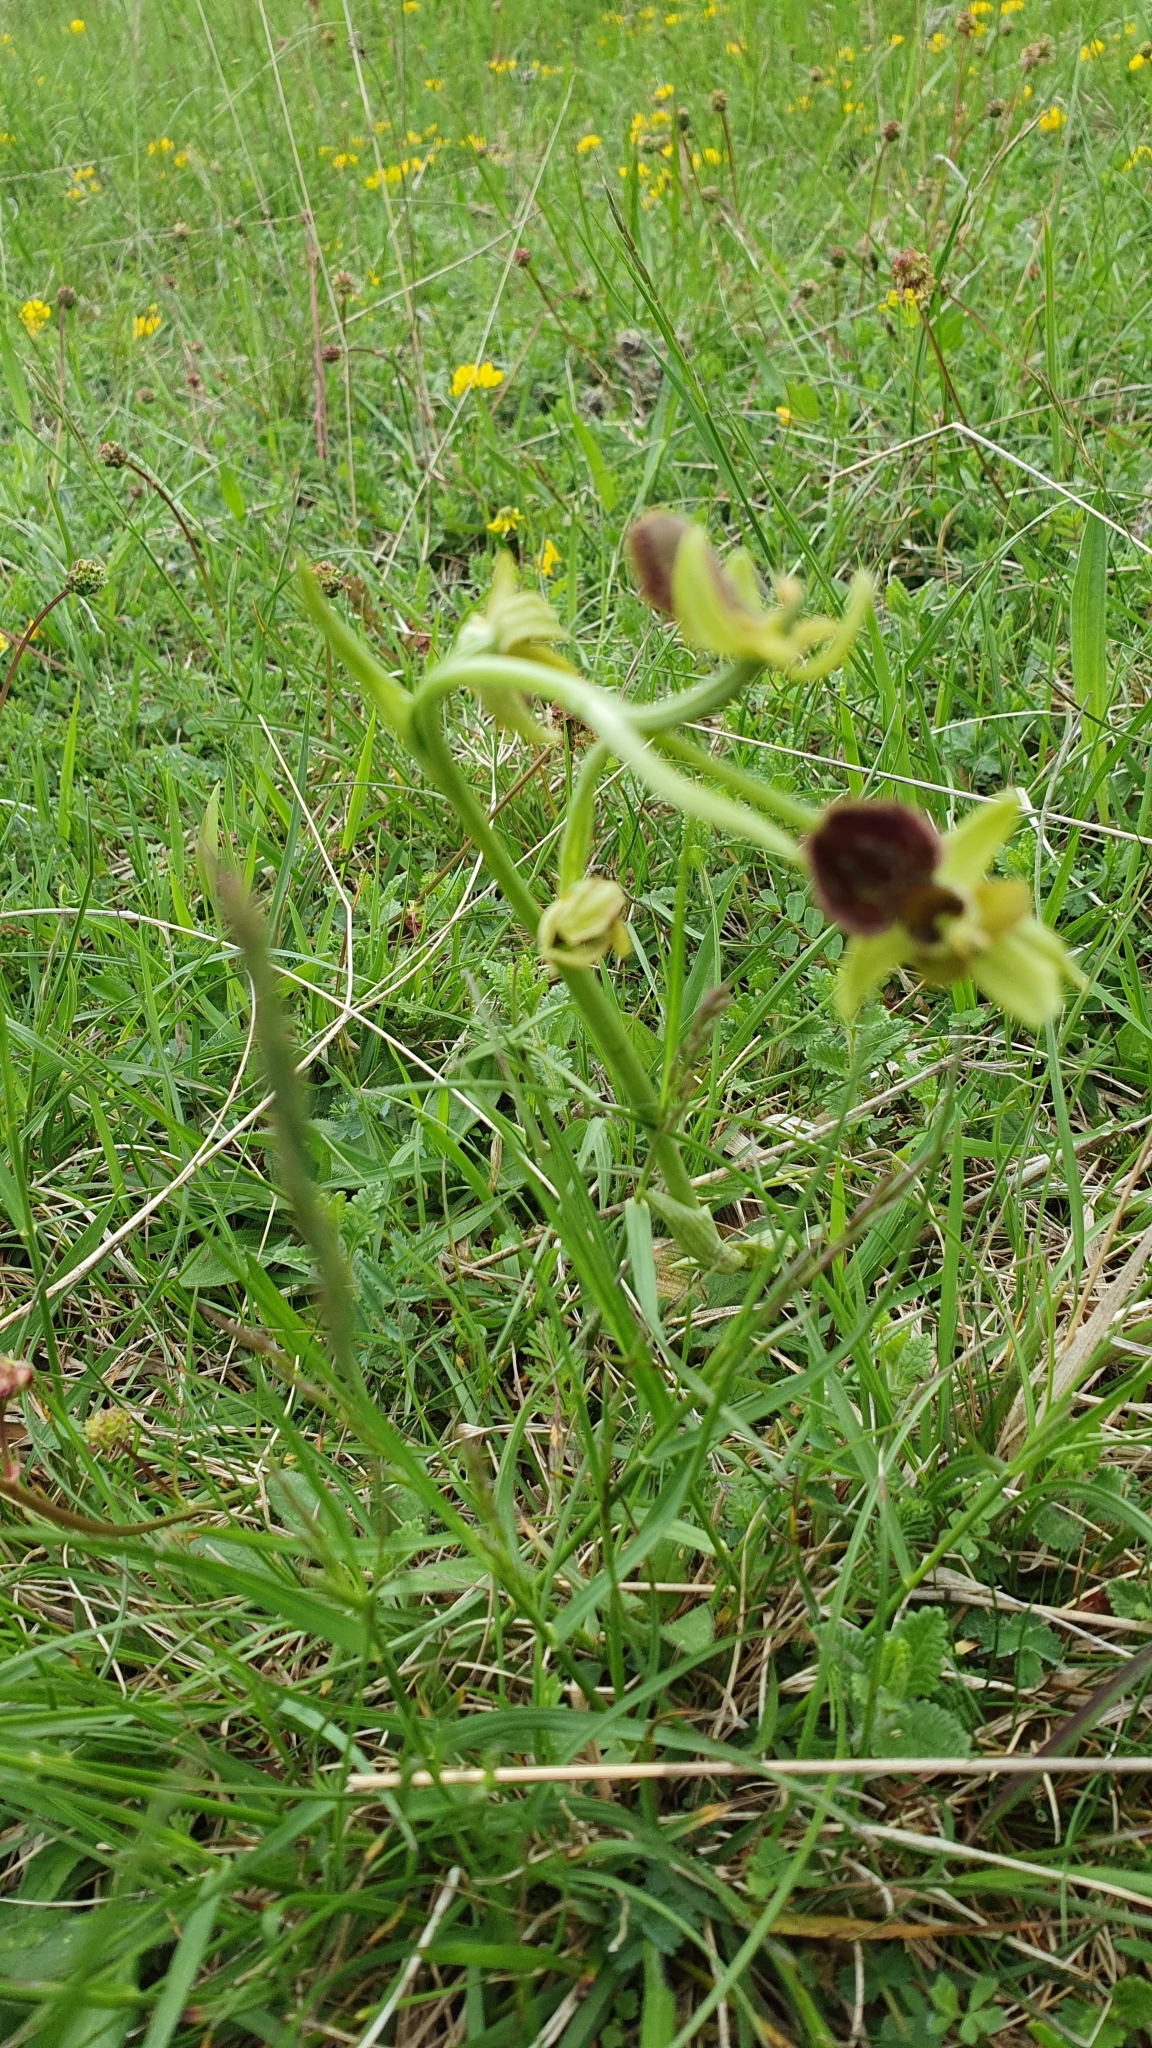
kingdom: Plantae
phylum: Tracheophyta
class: Liliopsida
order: Asparagales
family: Orchidaceae
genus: Ophrys
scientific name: Ophrys sphegodes
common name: Early spider-orchid
